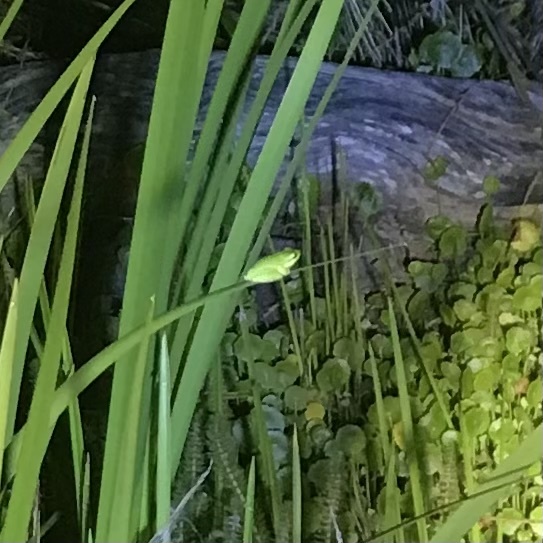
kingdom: Animalia
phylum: Chordata
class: Amphibia
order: Anura
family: Pelodryadidae
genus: Litoria
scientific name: Litoria fallax
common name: Eastern dwarf treefrog
